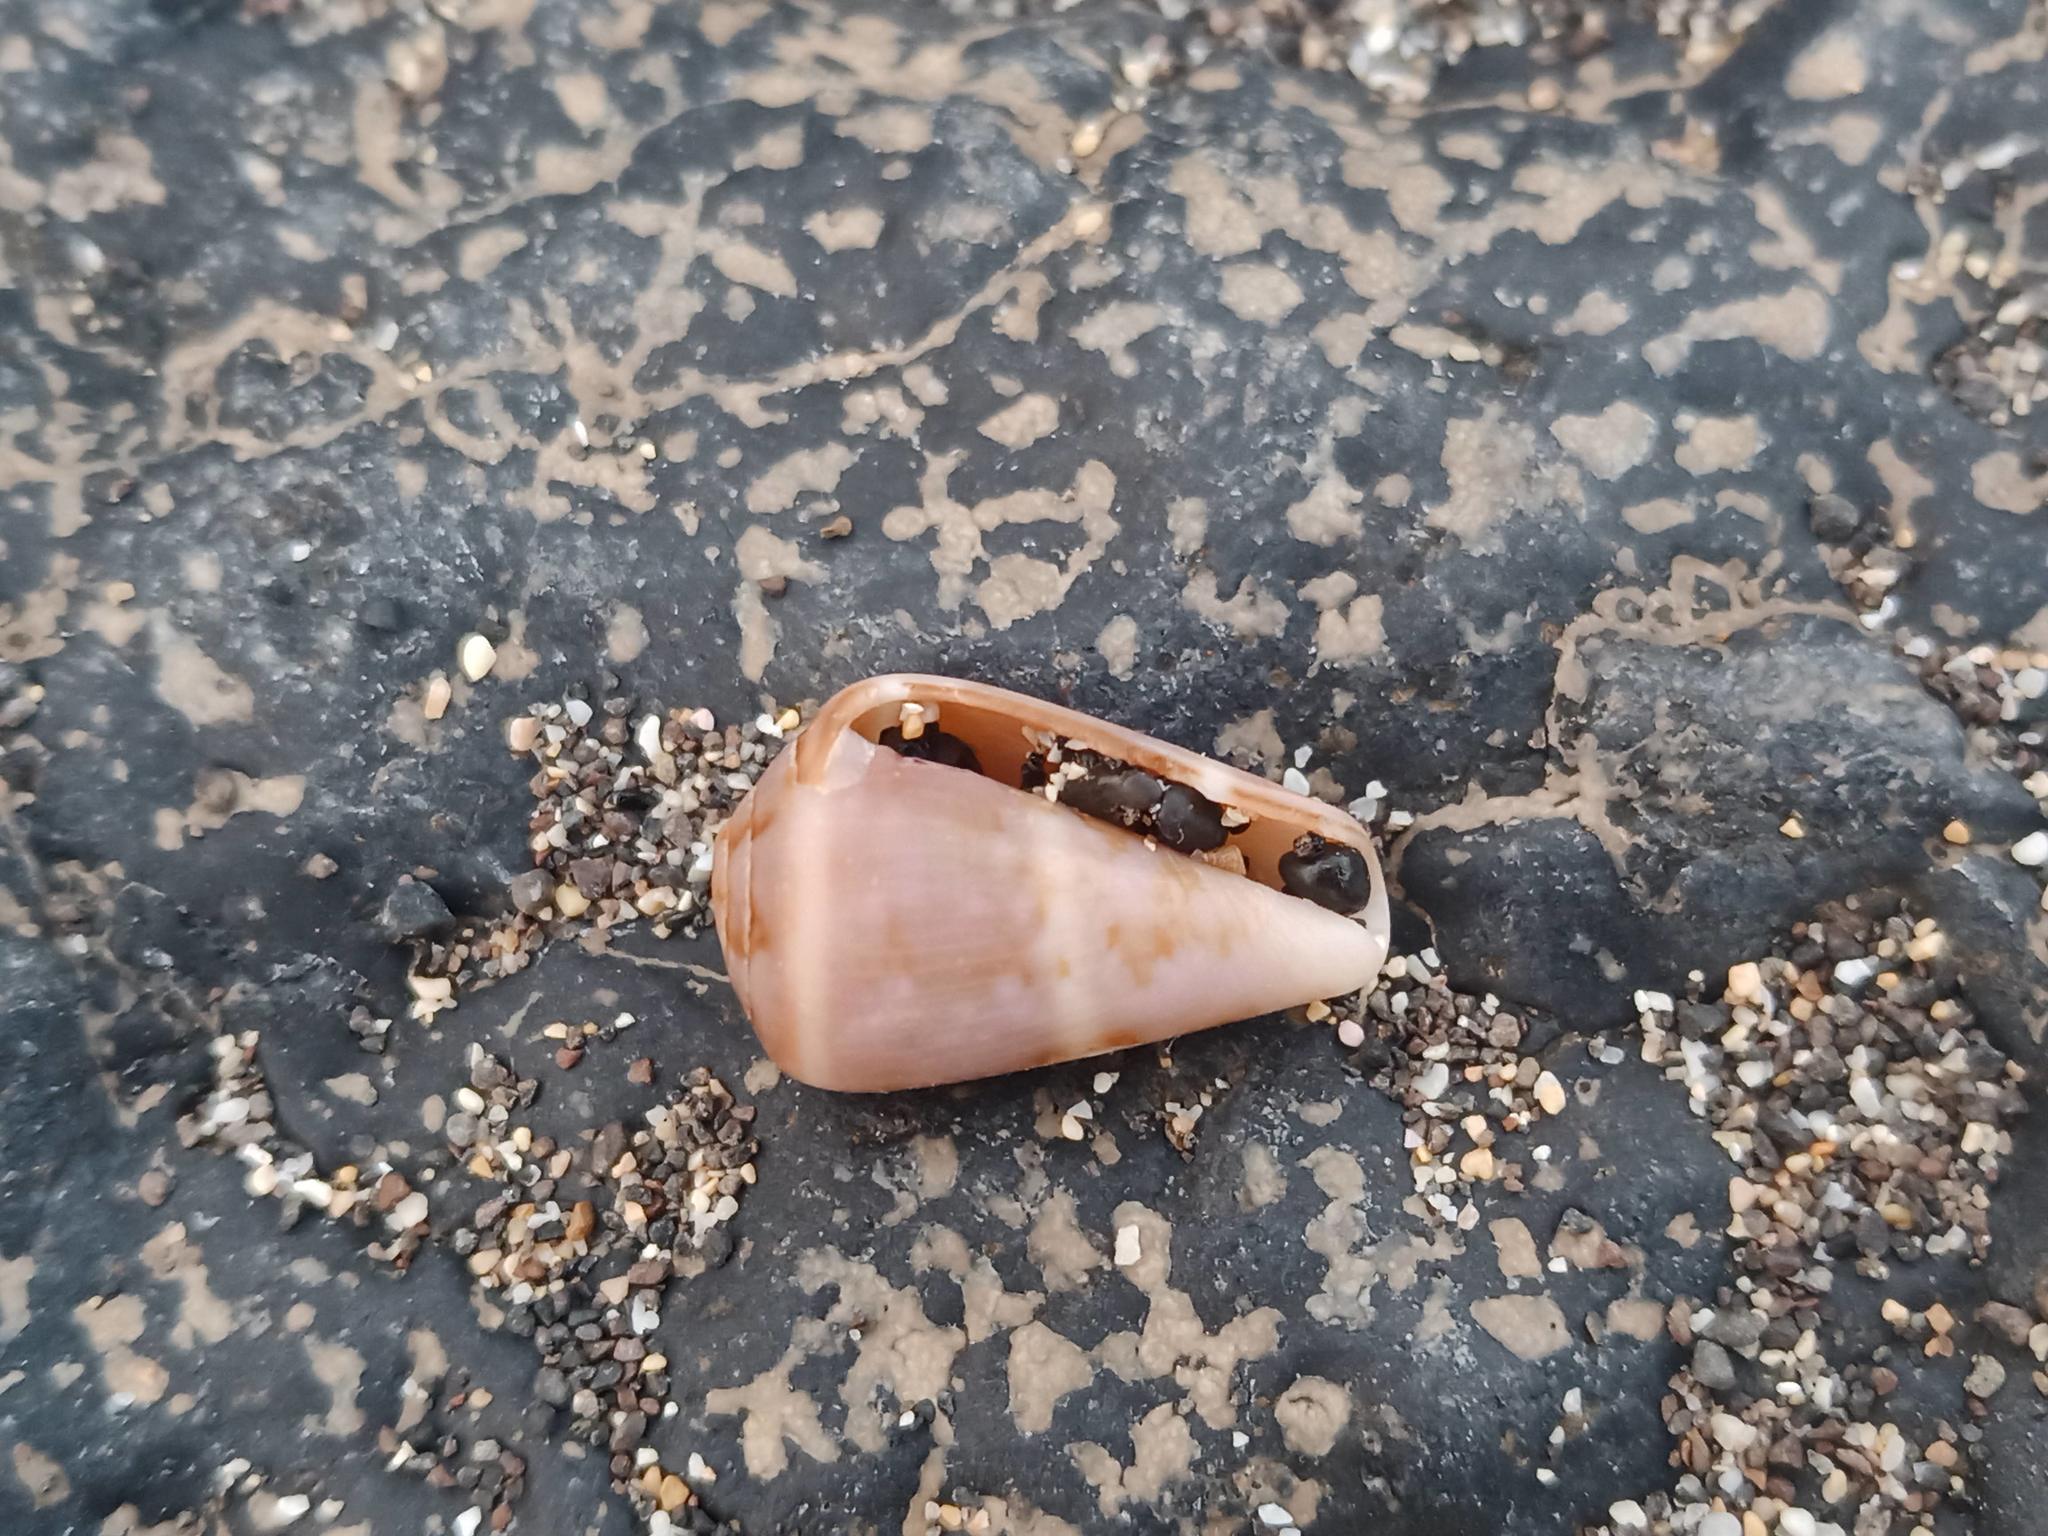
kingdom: Animalia
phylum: Mollusca
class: Gastropoda
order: Neogastropoda
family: Conidae
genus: Conus
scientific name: Conus guanche
